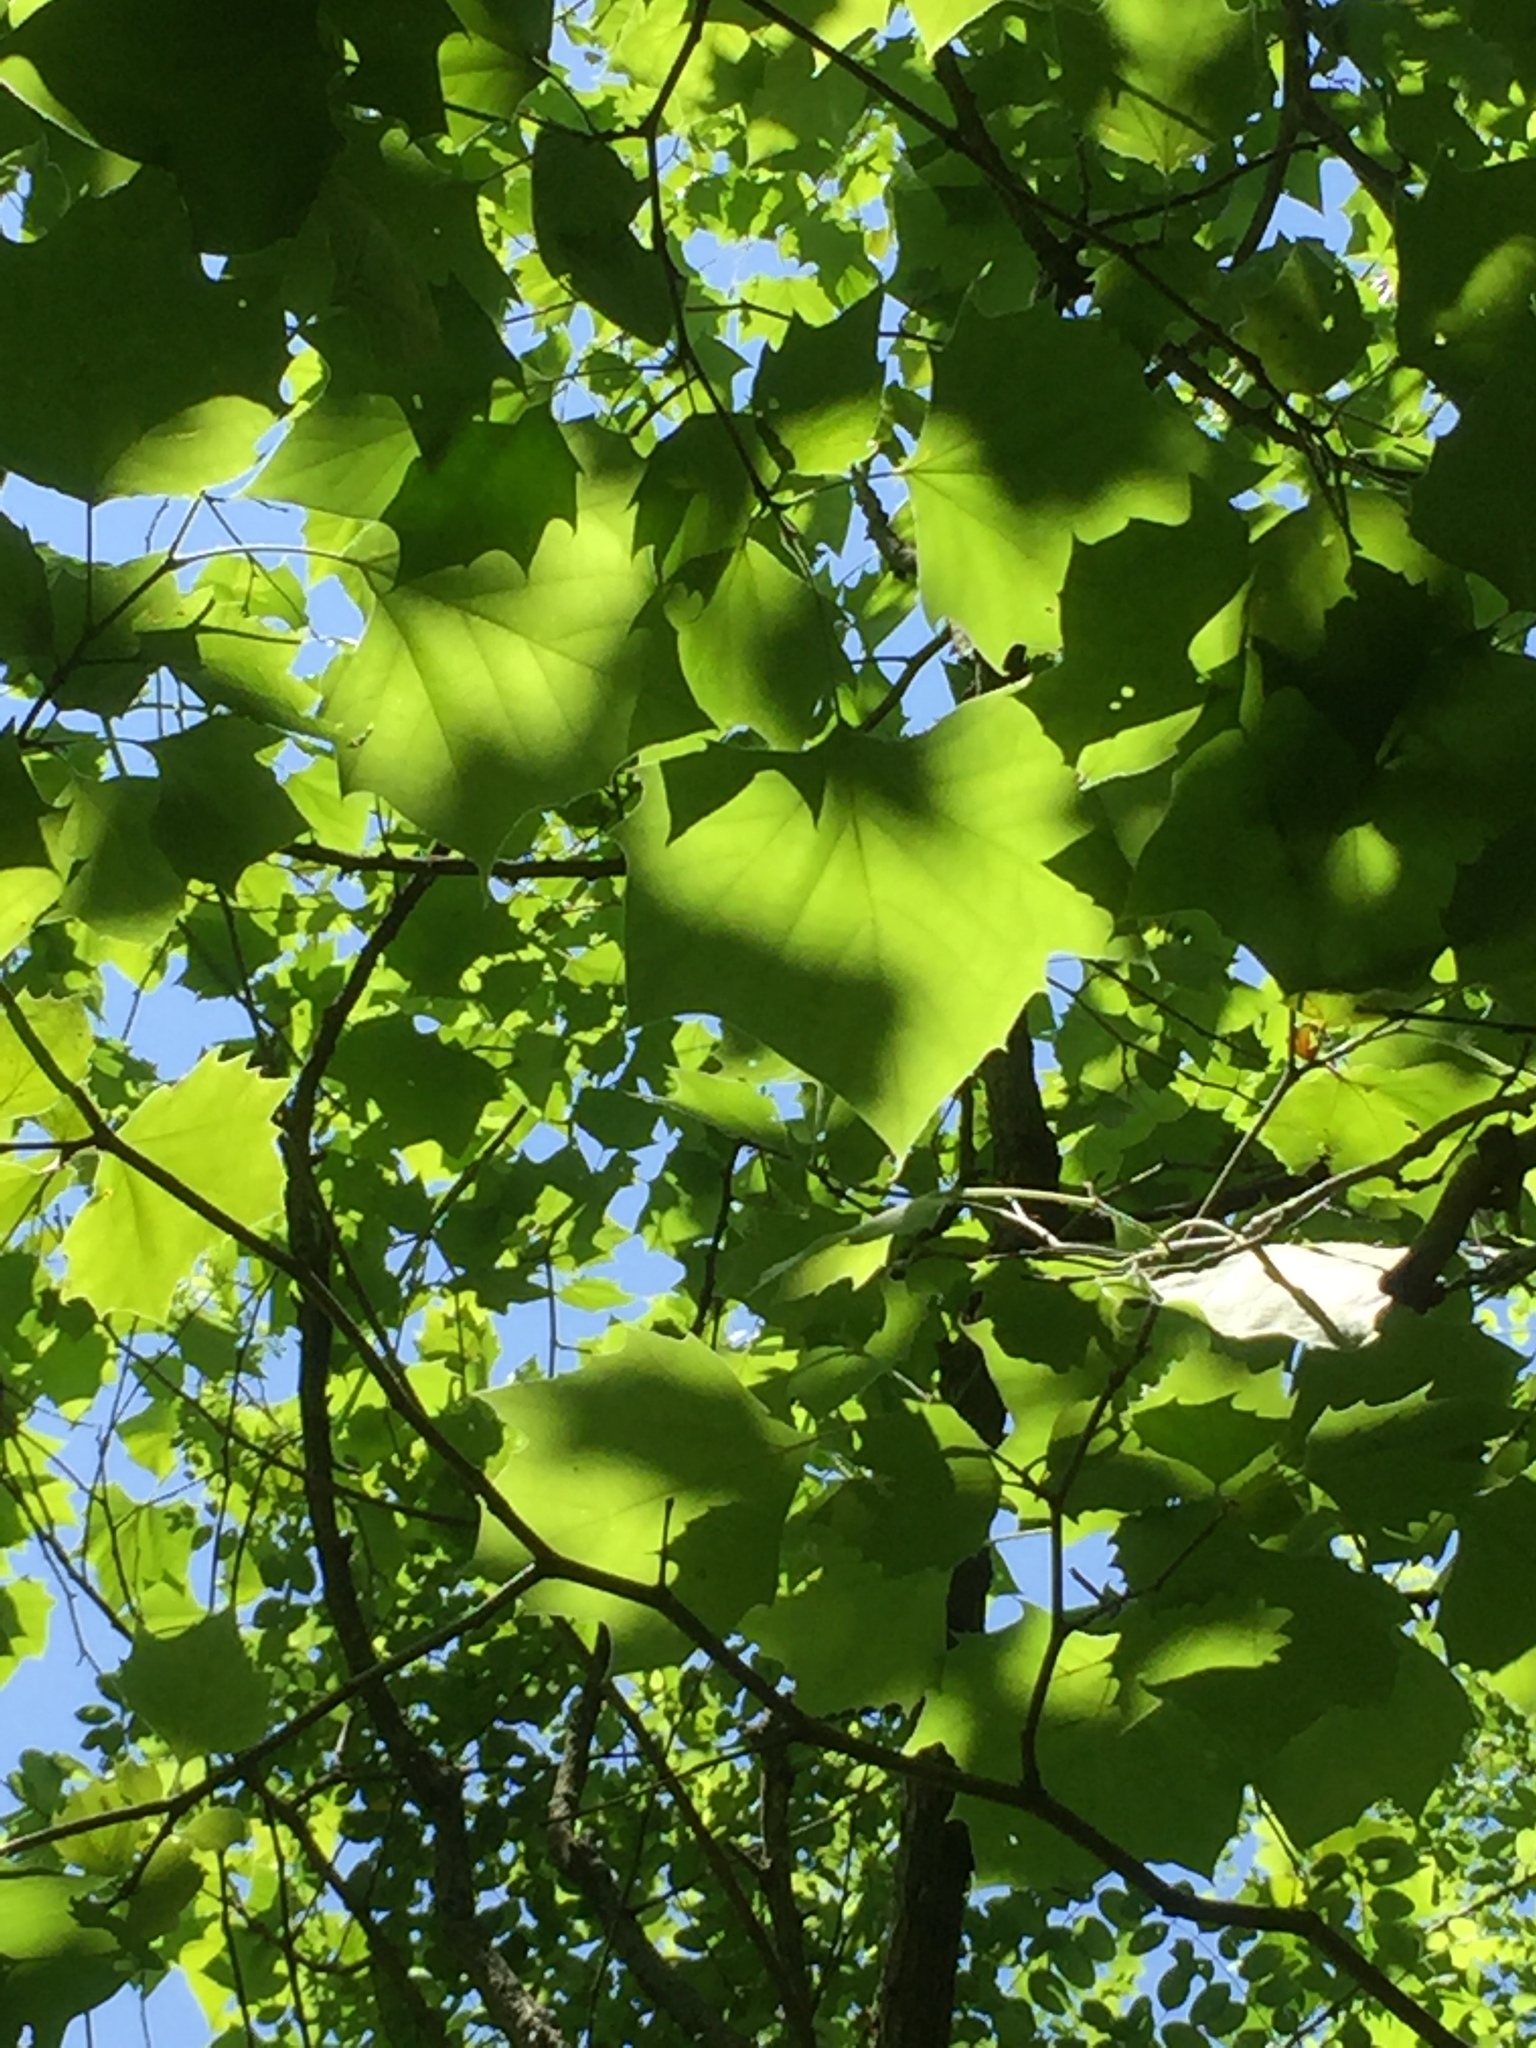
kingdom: Plantae
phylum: Tracheophyta
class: Magnoliopsida
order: Proteales
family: Platanaceae
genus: Platanus
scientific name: Platanus occidentalis
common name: American sycamore
